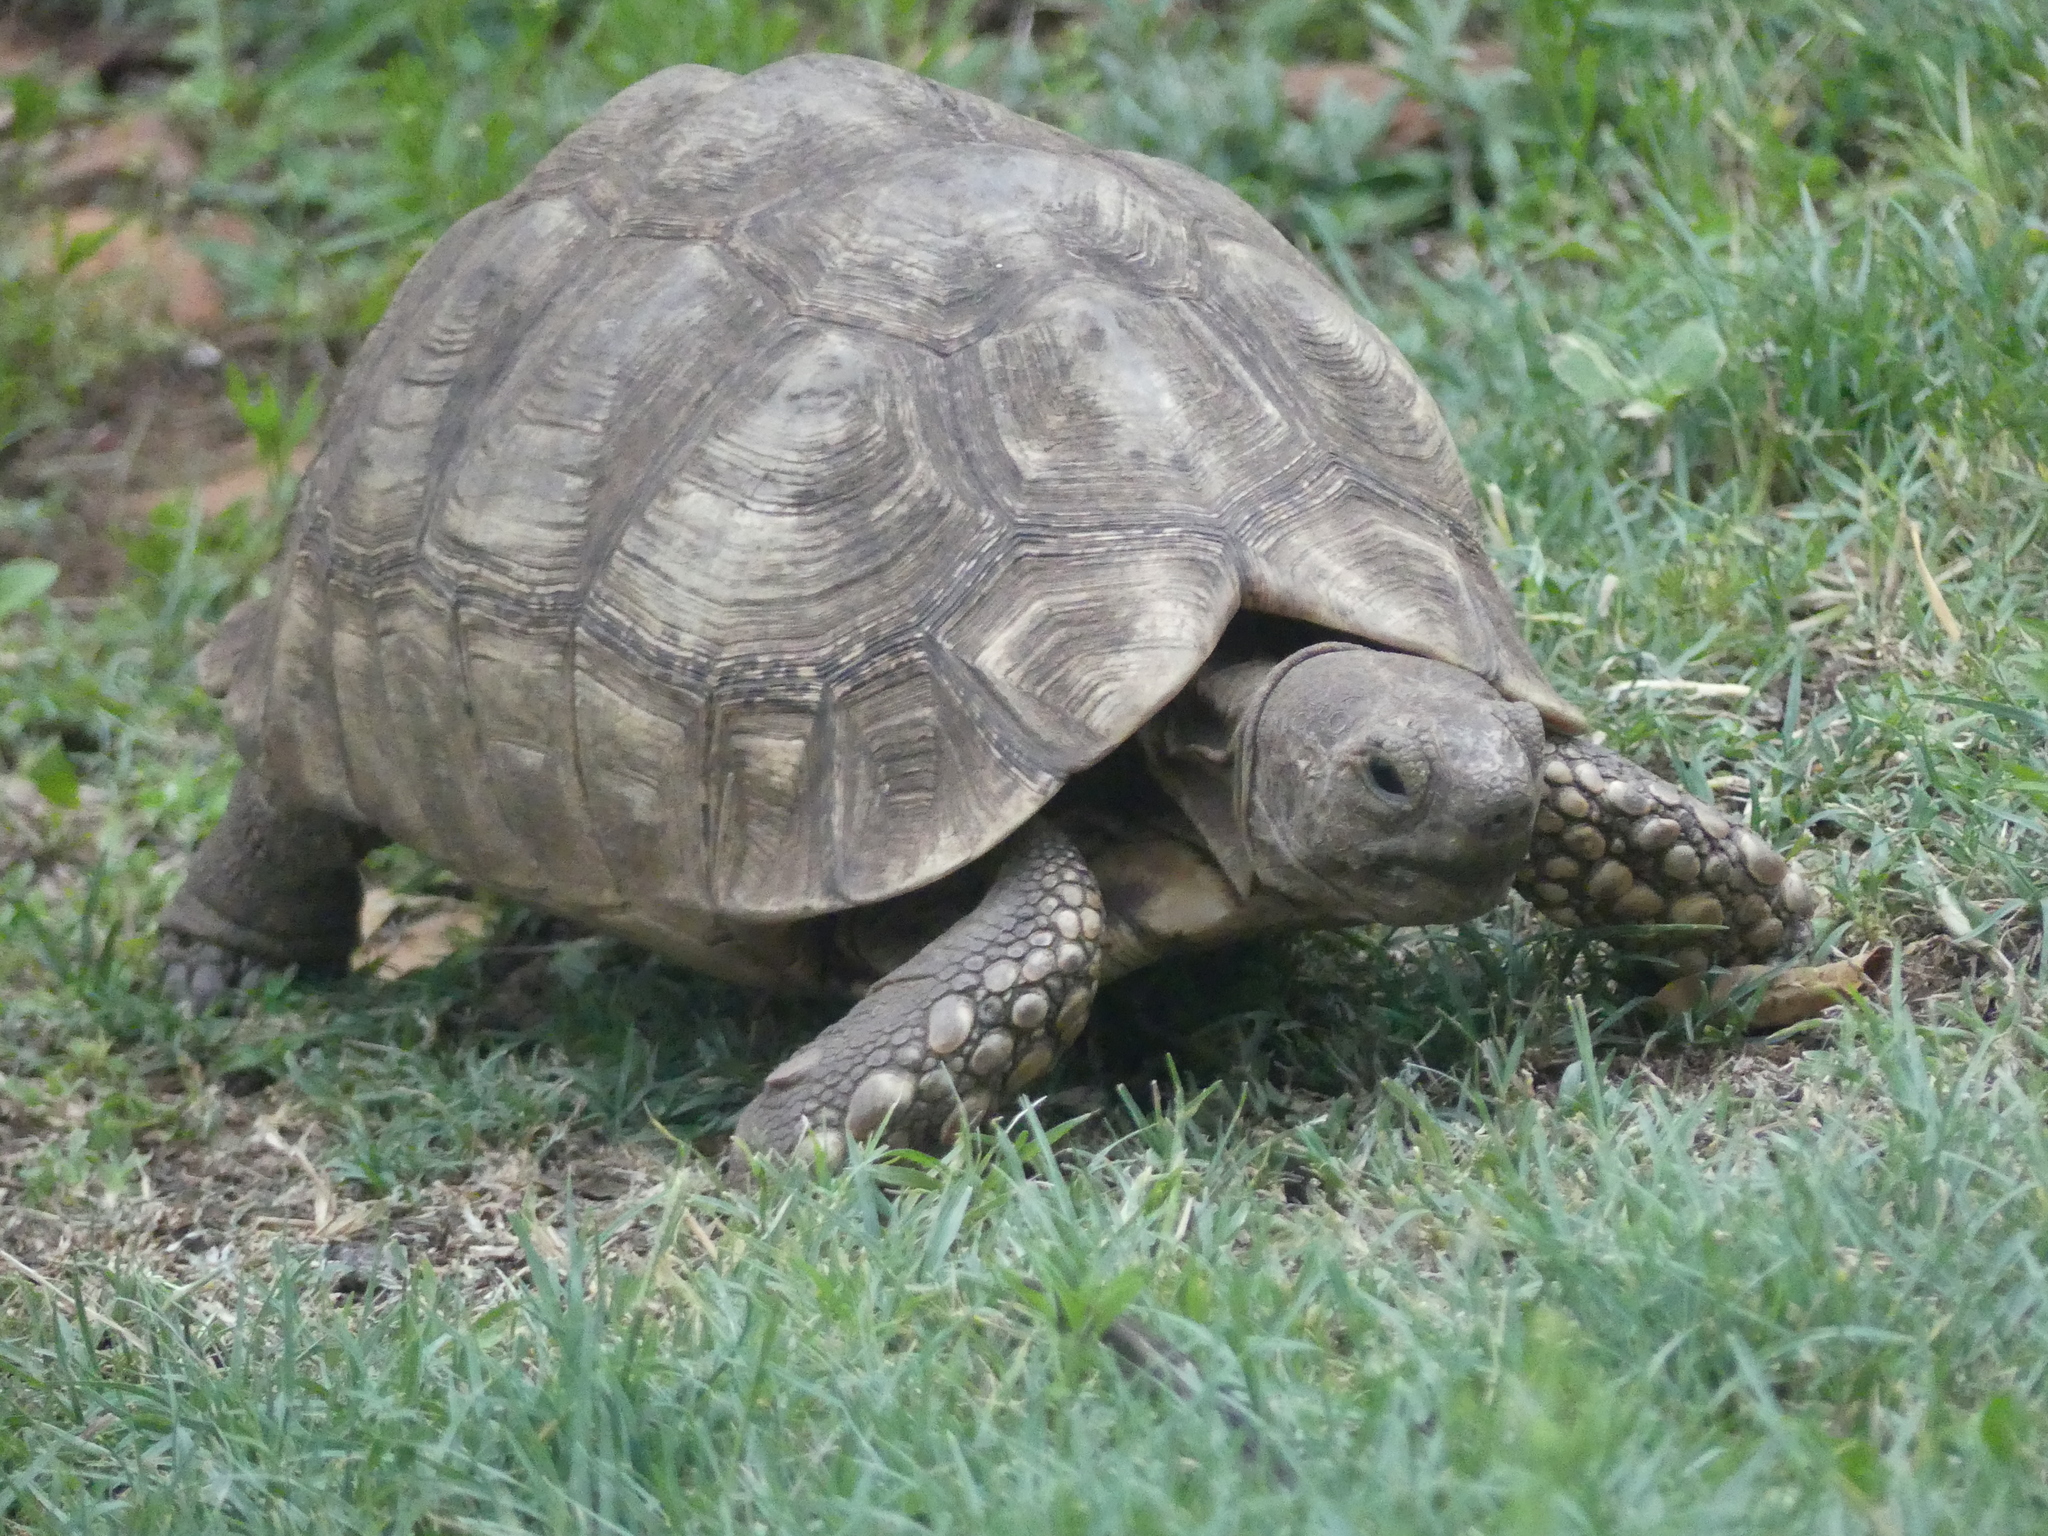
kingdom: Animalia
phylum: Chordata
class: Testudines
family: Testudinidae
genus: Stigmochelys
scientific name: Stigmochelys pardalis
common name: Leopard tortoise
